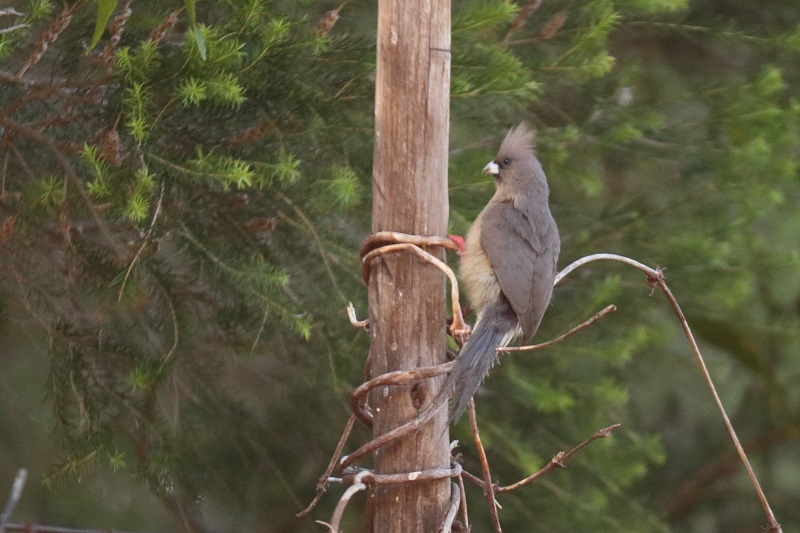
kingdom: Animalia
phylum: Chordata
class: Aves
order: Coliiformes
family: Coliidae
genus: Colius
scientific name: Colius colius
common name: White-backed mousebird
